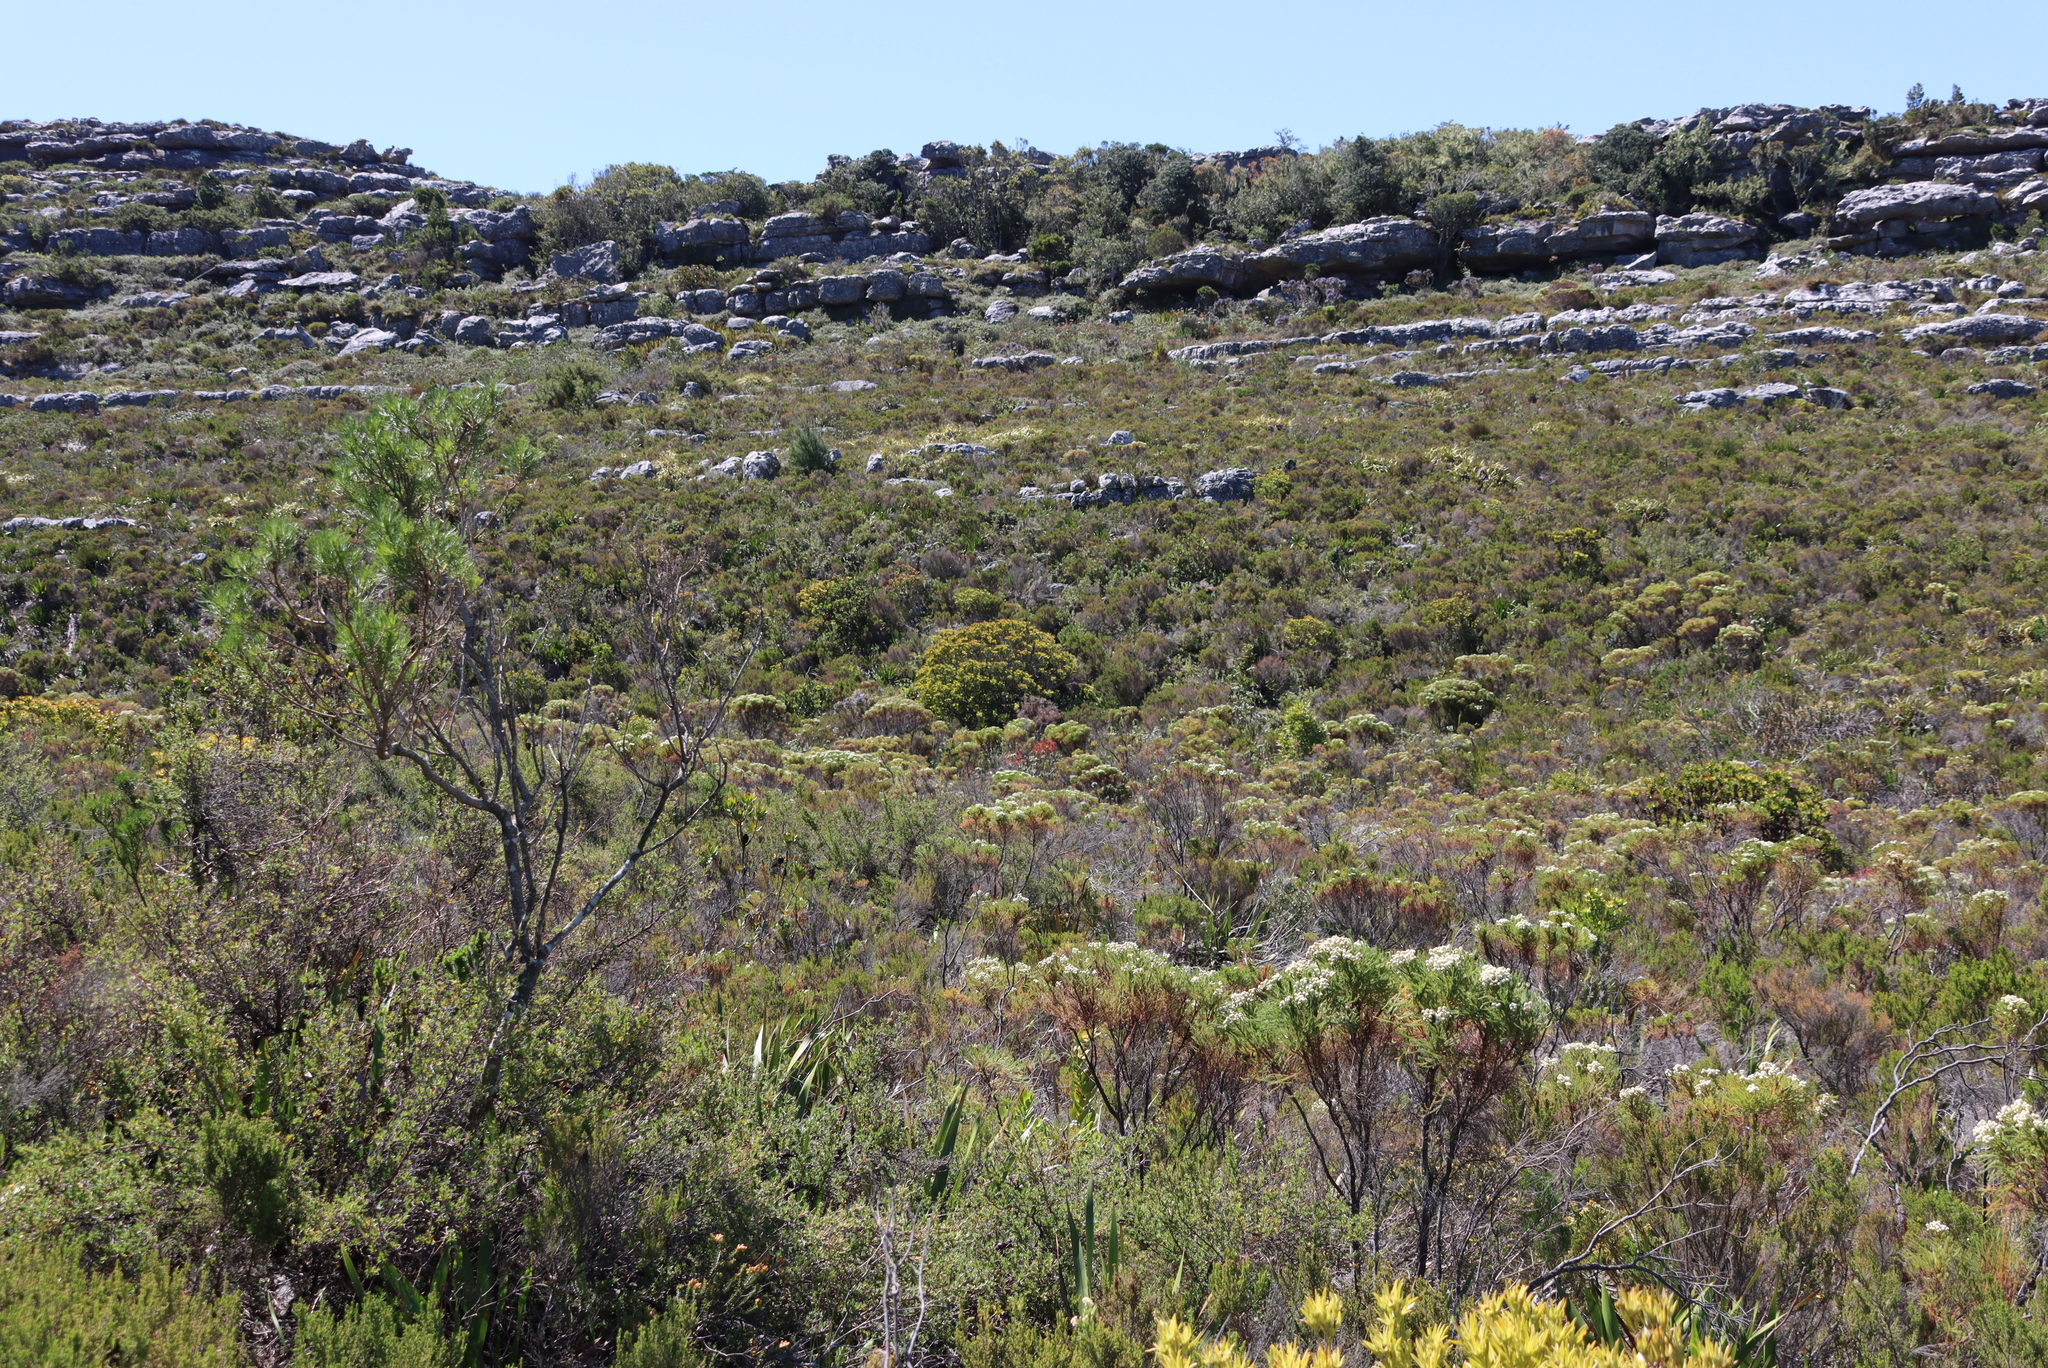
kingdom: Plantae
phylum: Tracheophyta
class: Magnoliopsida
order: Ericales
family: Ericaceae
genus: Erica
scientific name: Erica curviflora
